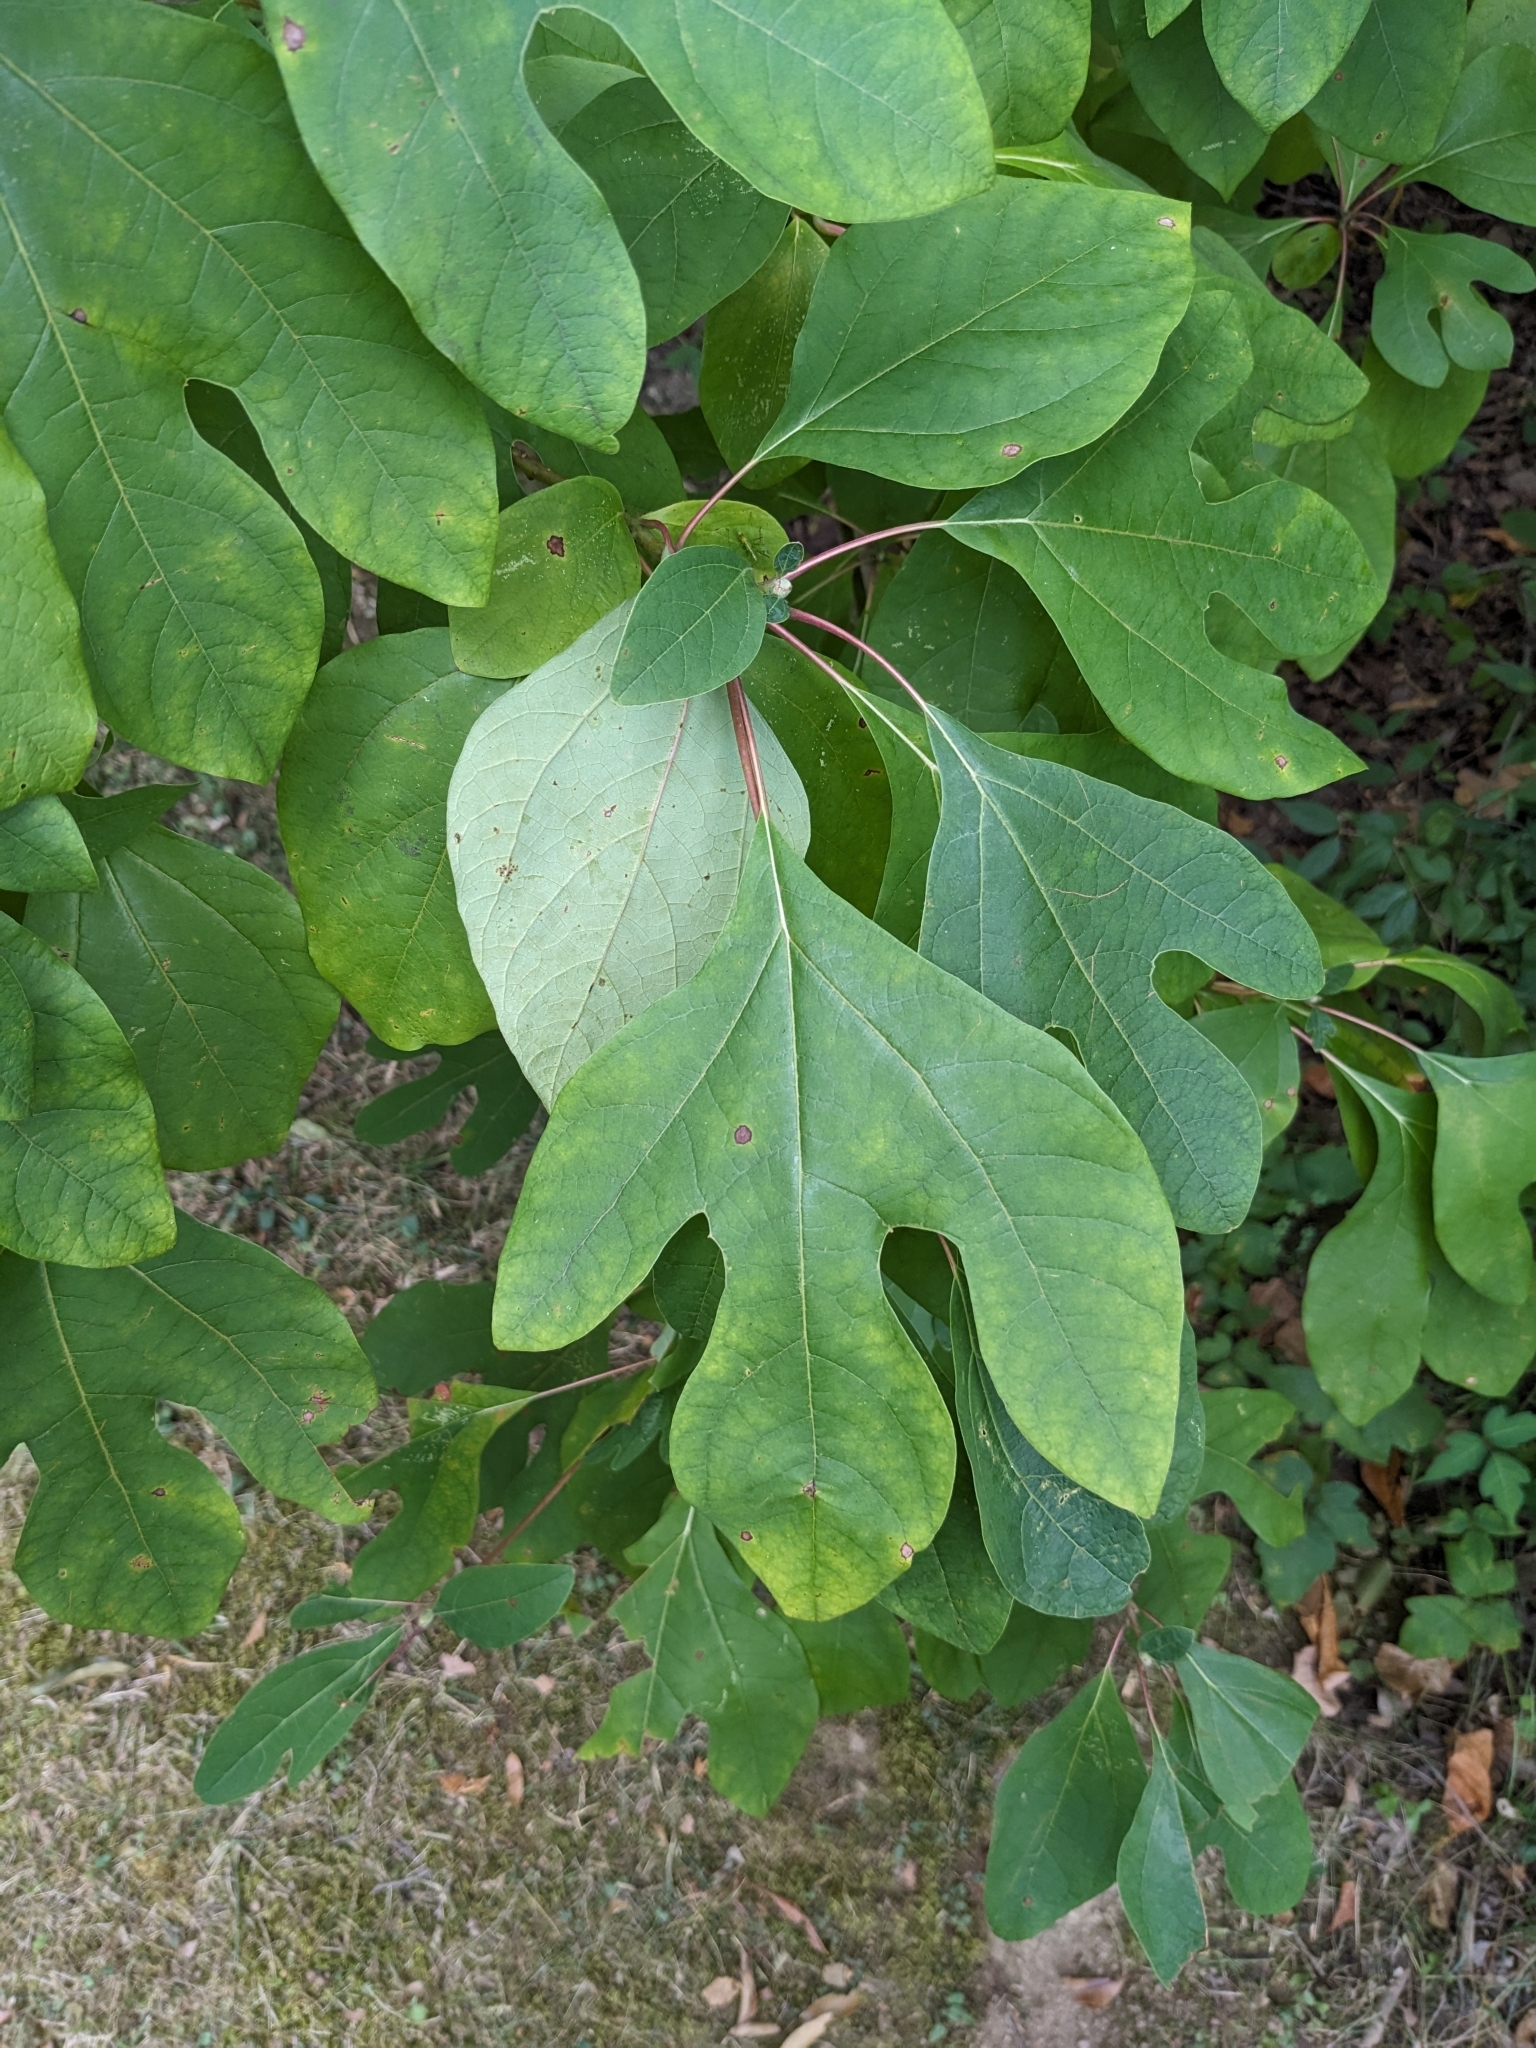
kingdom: Plantae
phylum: Tracheophyta
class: Magnoliopsida
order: Laurales
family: Lauraceae
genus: Sassafras
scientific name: Sassafras albidum
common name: Sassafras
